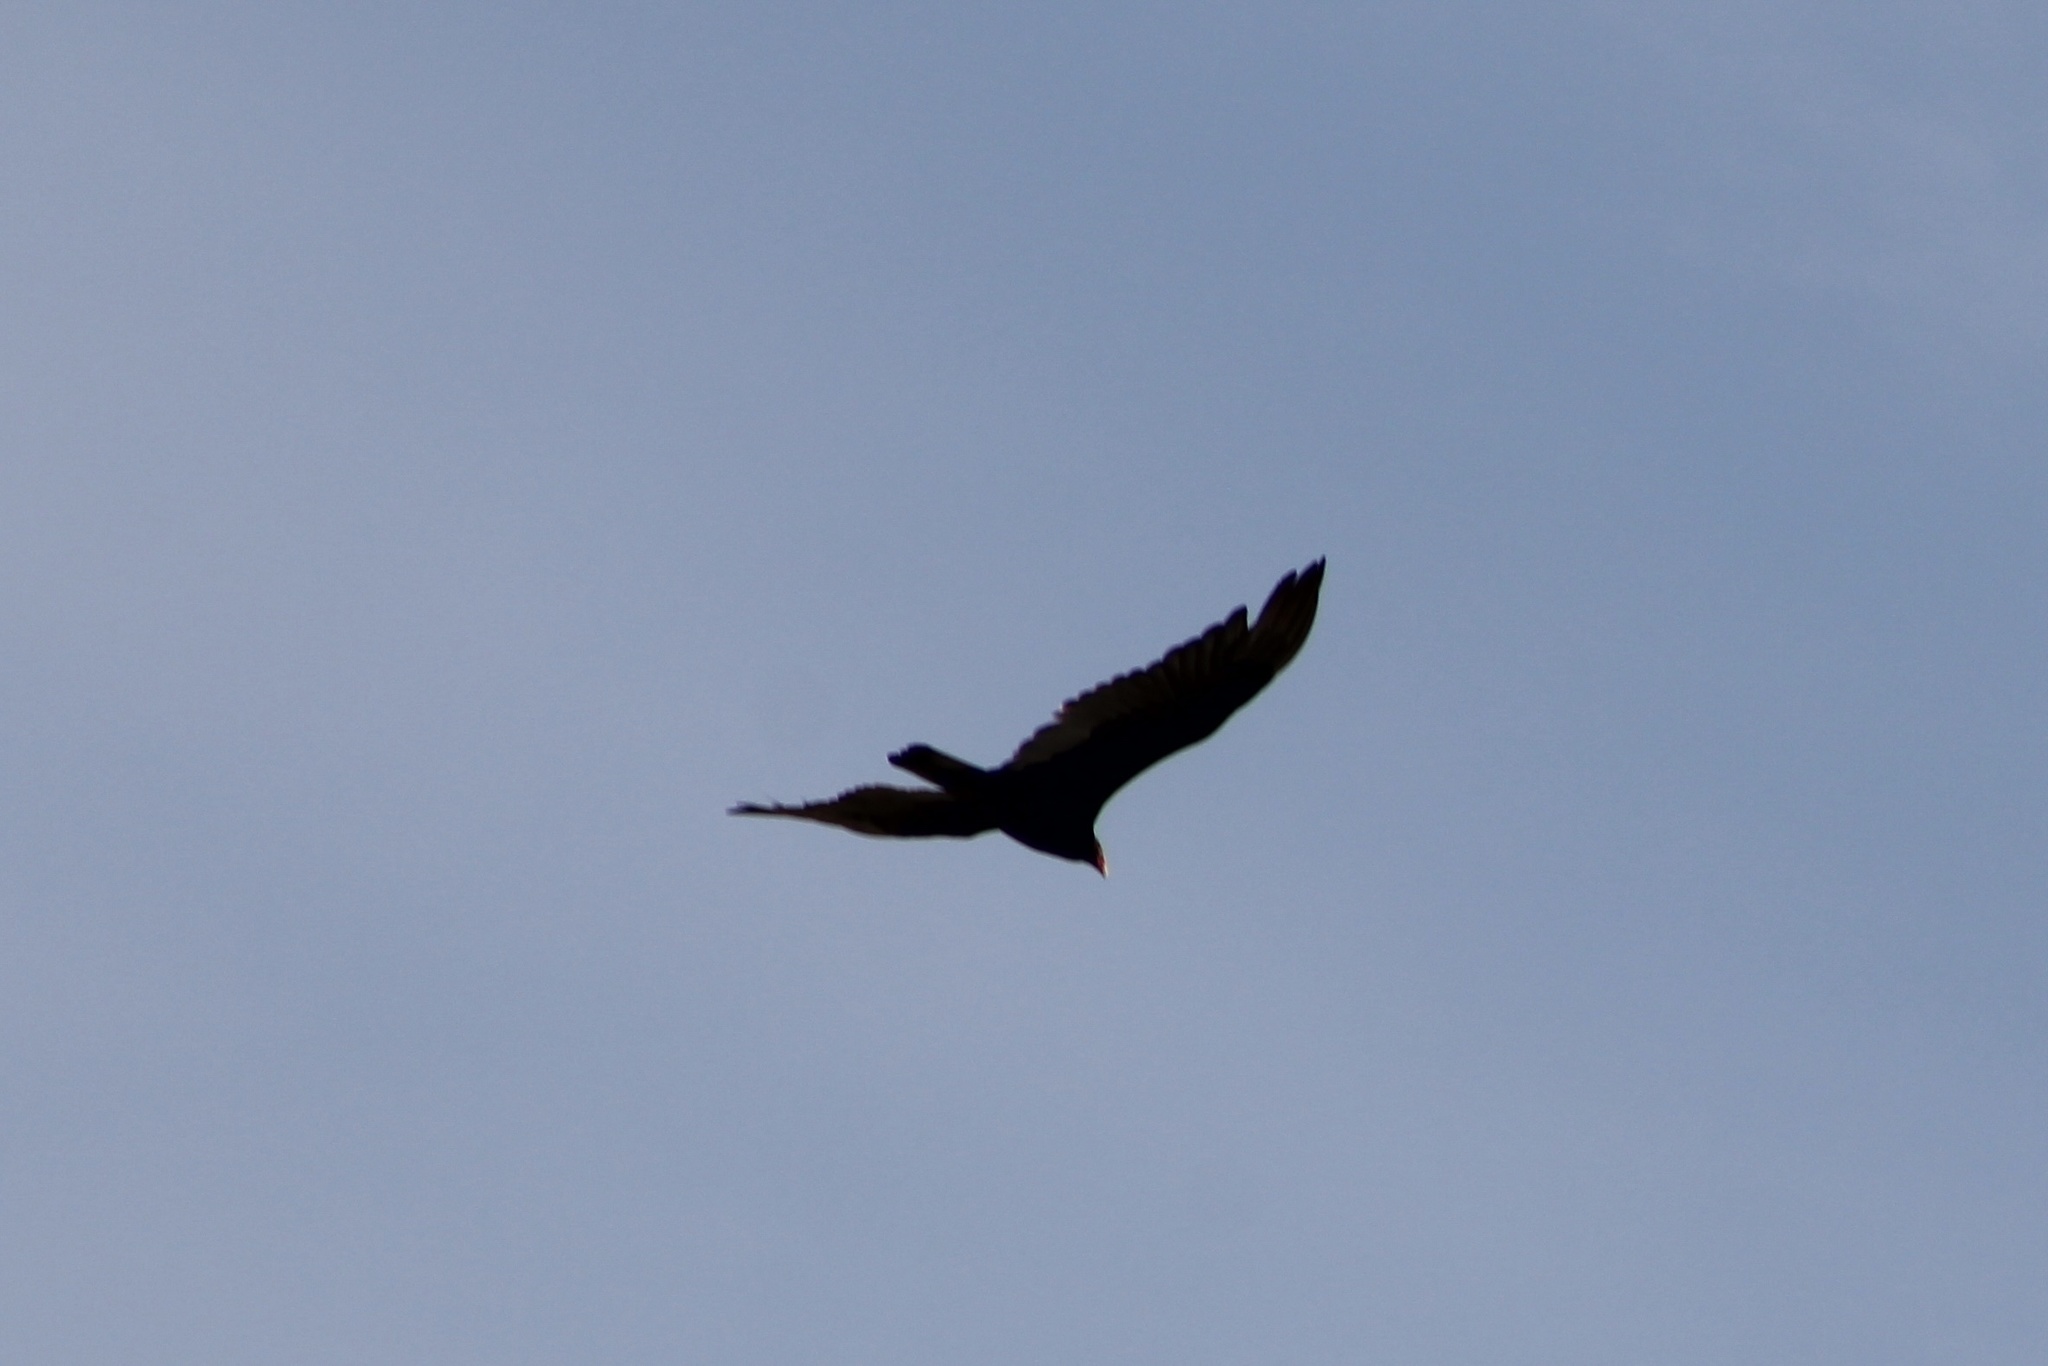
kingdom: Animalia
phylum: Chordata
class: Aves
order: Accipitriformes
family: Cathartidae
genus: Cathartes
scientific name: Cathartes aura
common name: Turkey vulture
